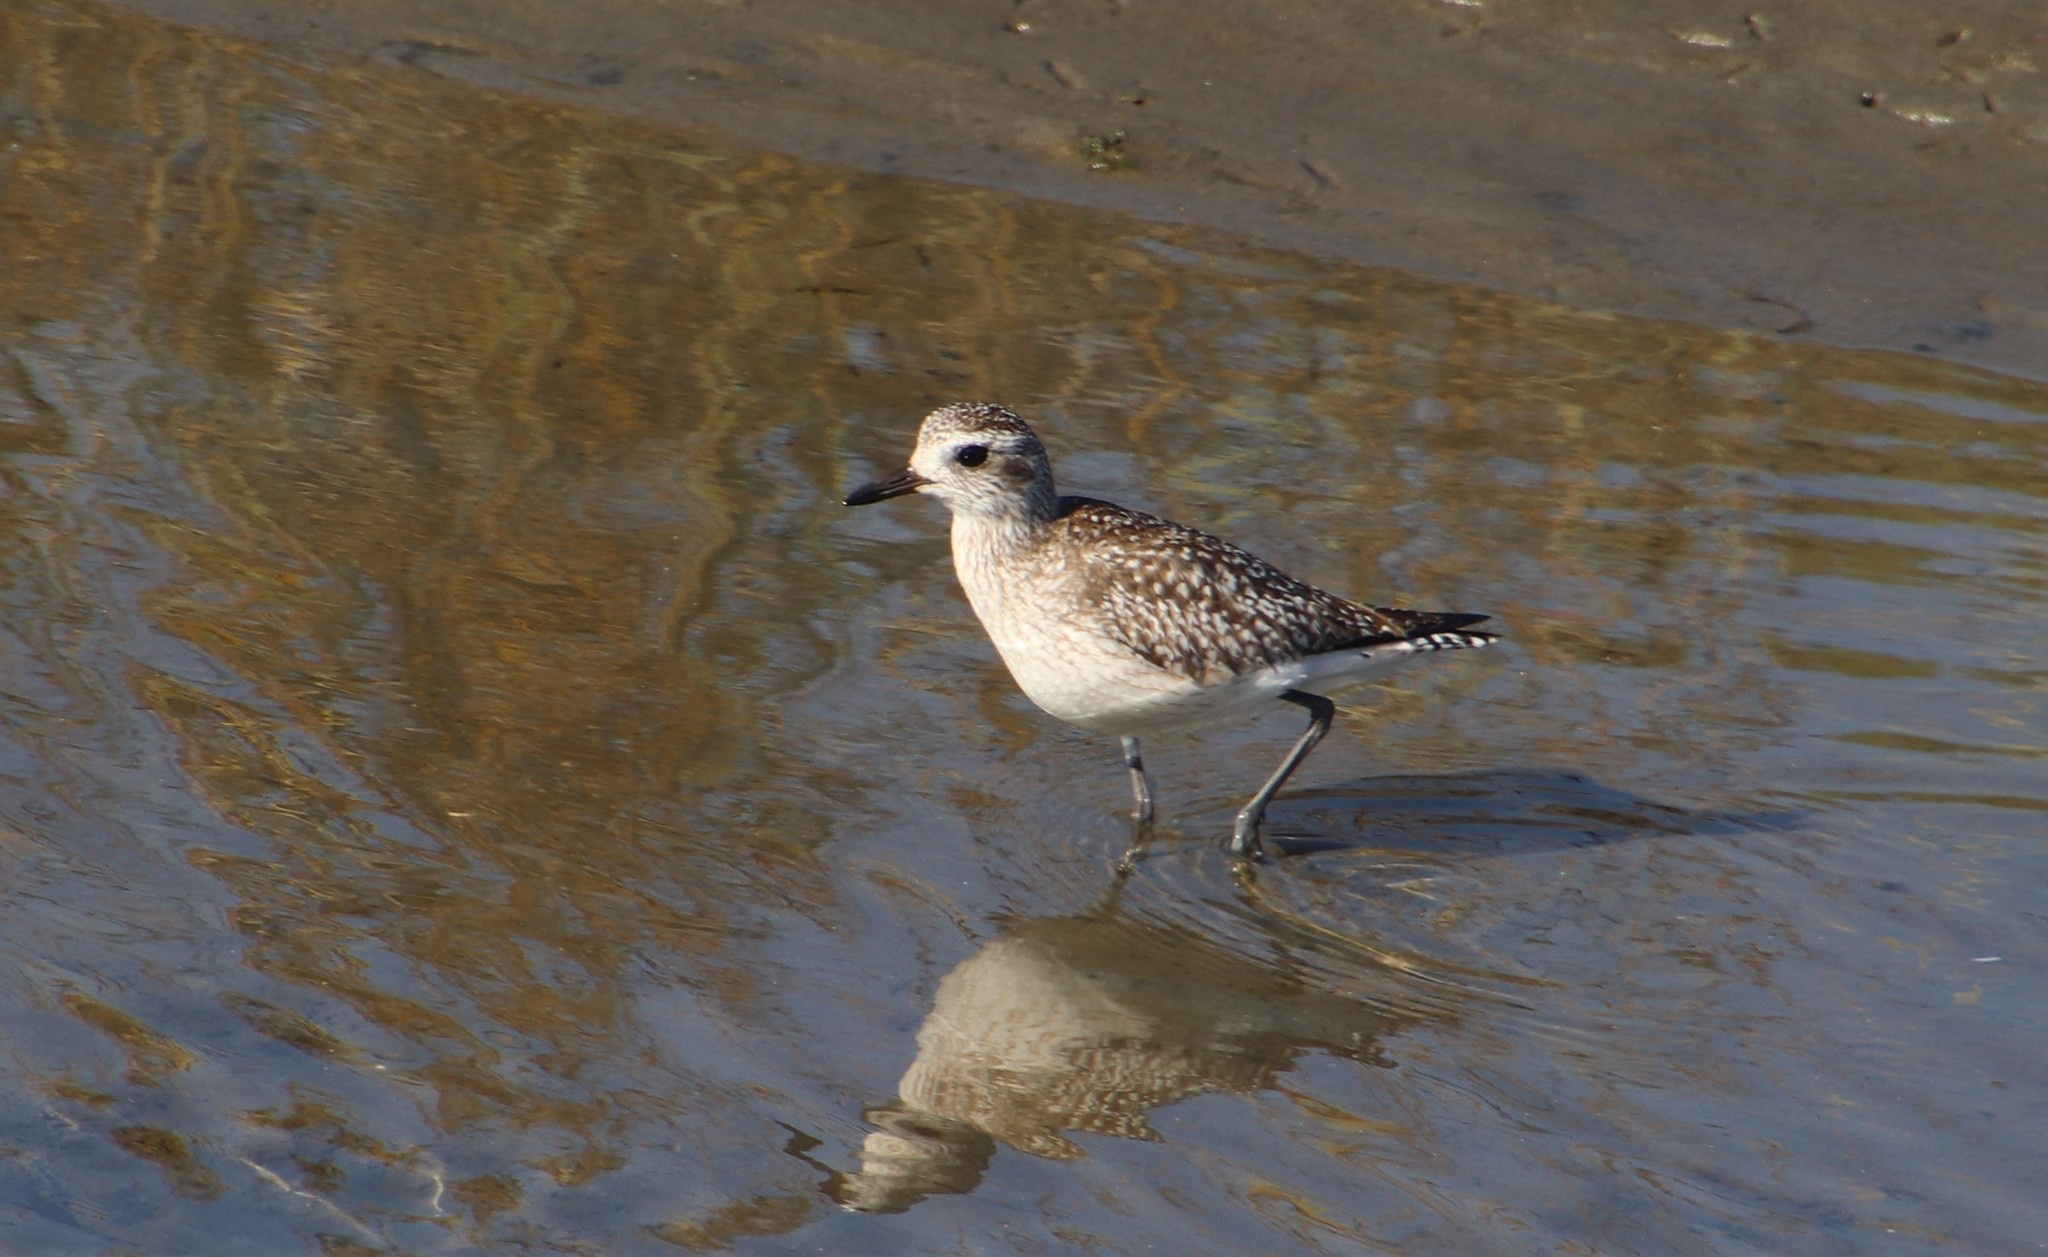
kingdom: Animalia
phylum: Chordata
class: Aves
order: Charadriiformes
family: Charadriidae
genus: Pluvialis
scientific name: Pluvialis squatarola
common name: Grey plover
